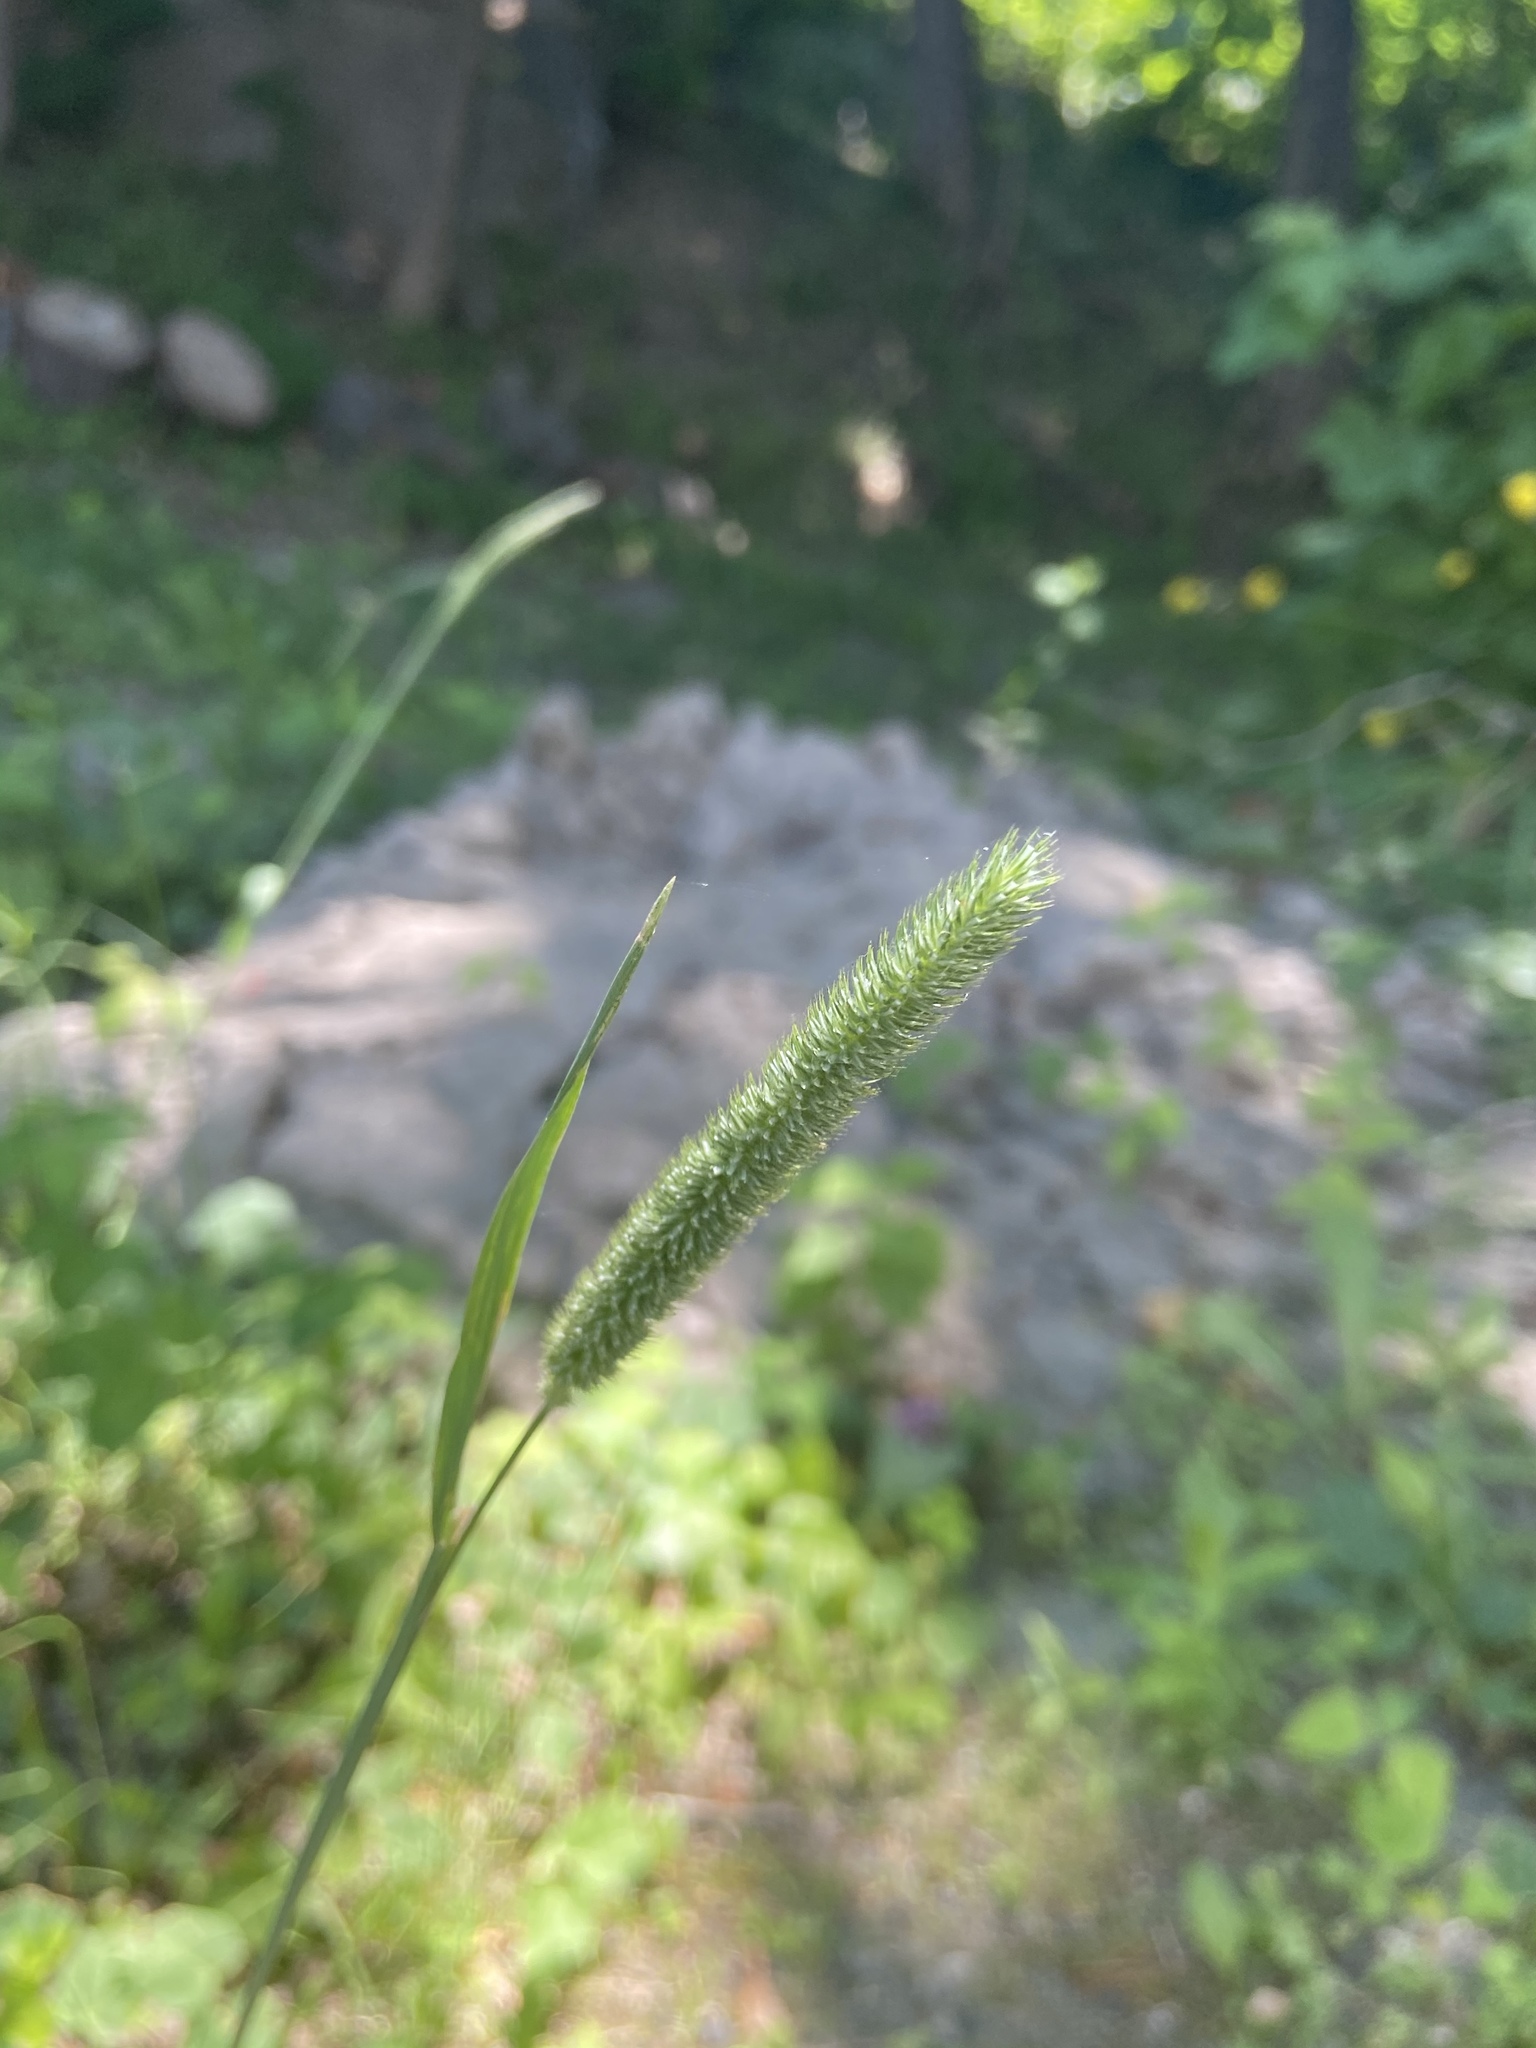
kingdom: Plantae
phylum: Tracheophyta
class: Liliopsida
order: Poales
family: Poaceae
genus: Phleum
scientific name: Phleum pratense
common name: Timothy grass
